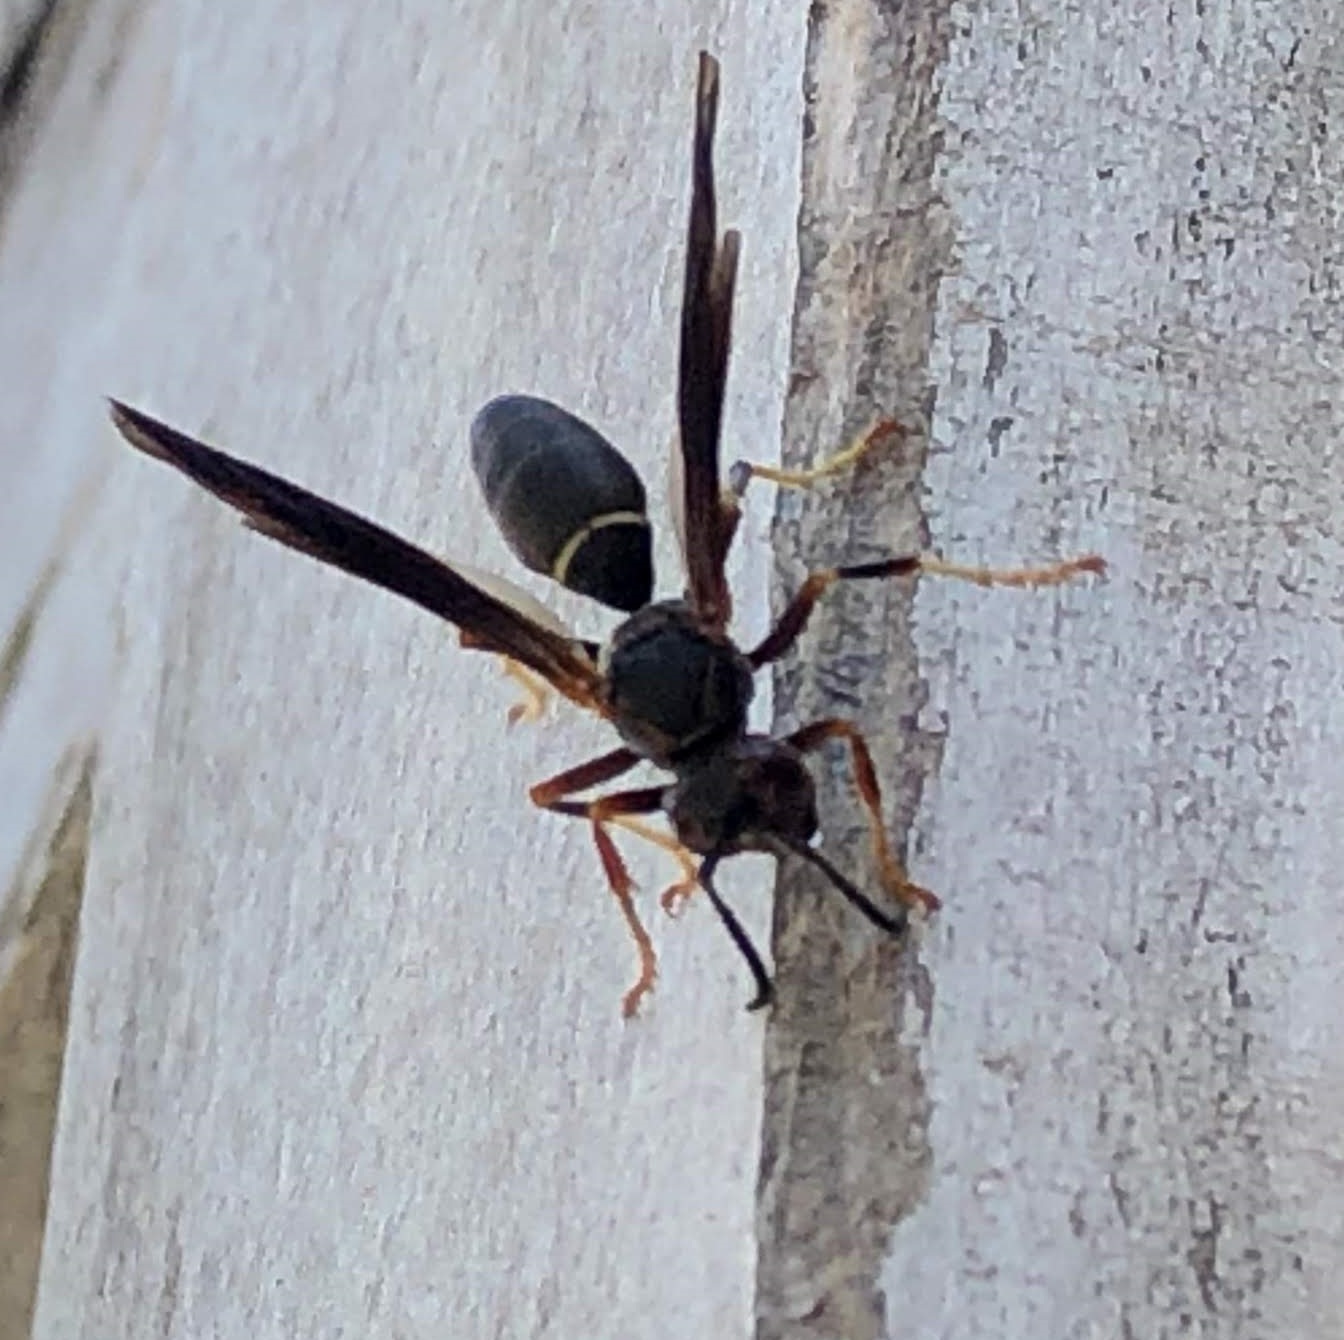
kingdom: Animalia
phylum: Arthropoda
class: Insecta
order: Hymenoptera
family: Eumenidae
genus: Polistes
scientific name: Polistes fuscatus
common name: Dark paper wasp
